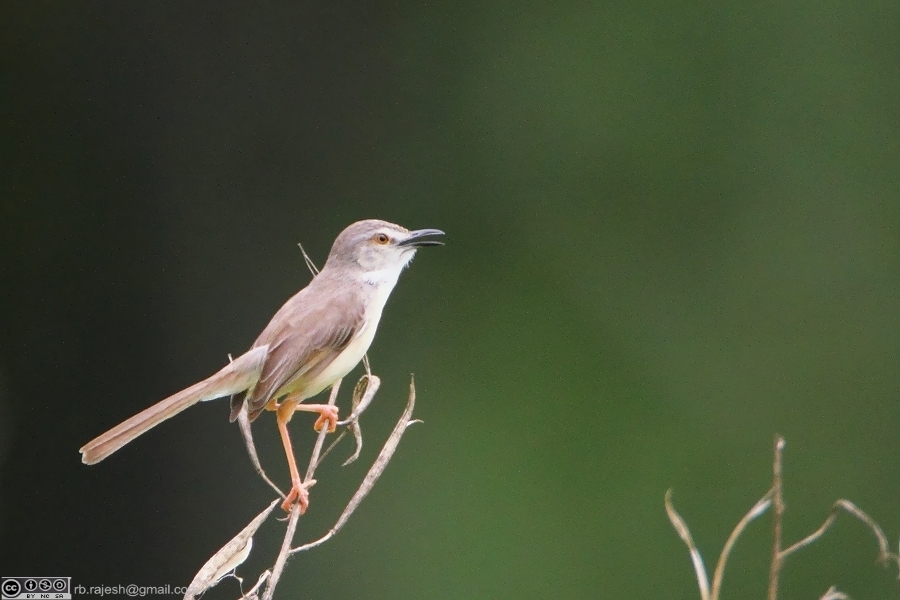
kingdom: Animalia
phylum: Chordata
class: Aves
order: Passeriformes
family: Cisticolidae
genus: Prinia
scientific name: Prinia inornata
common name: Plain prinia
